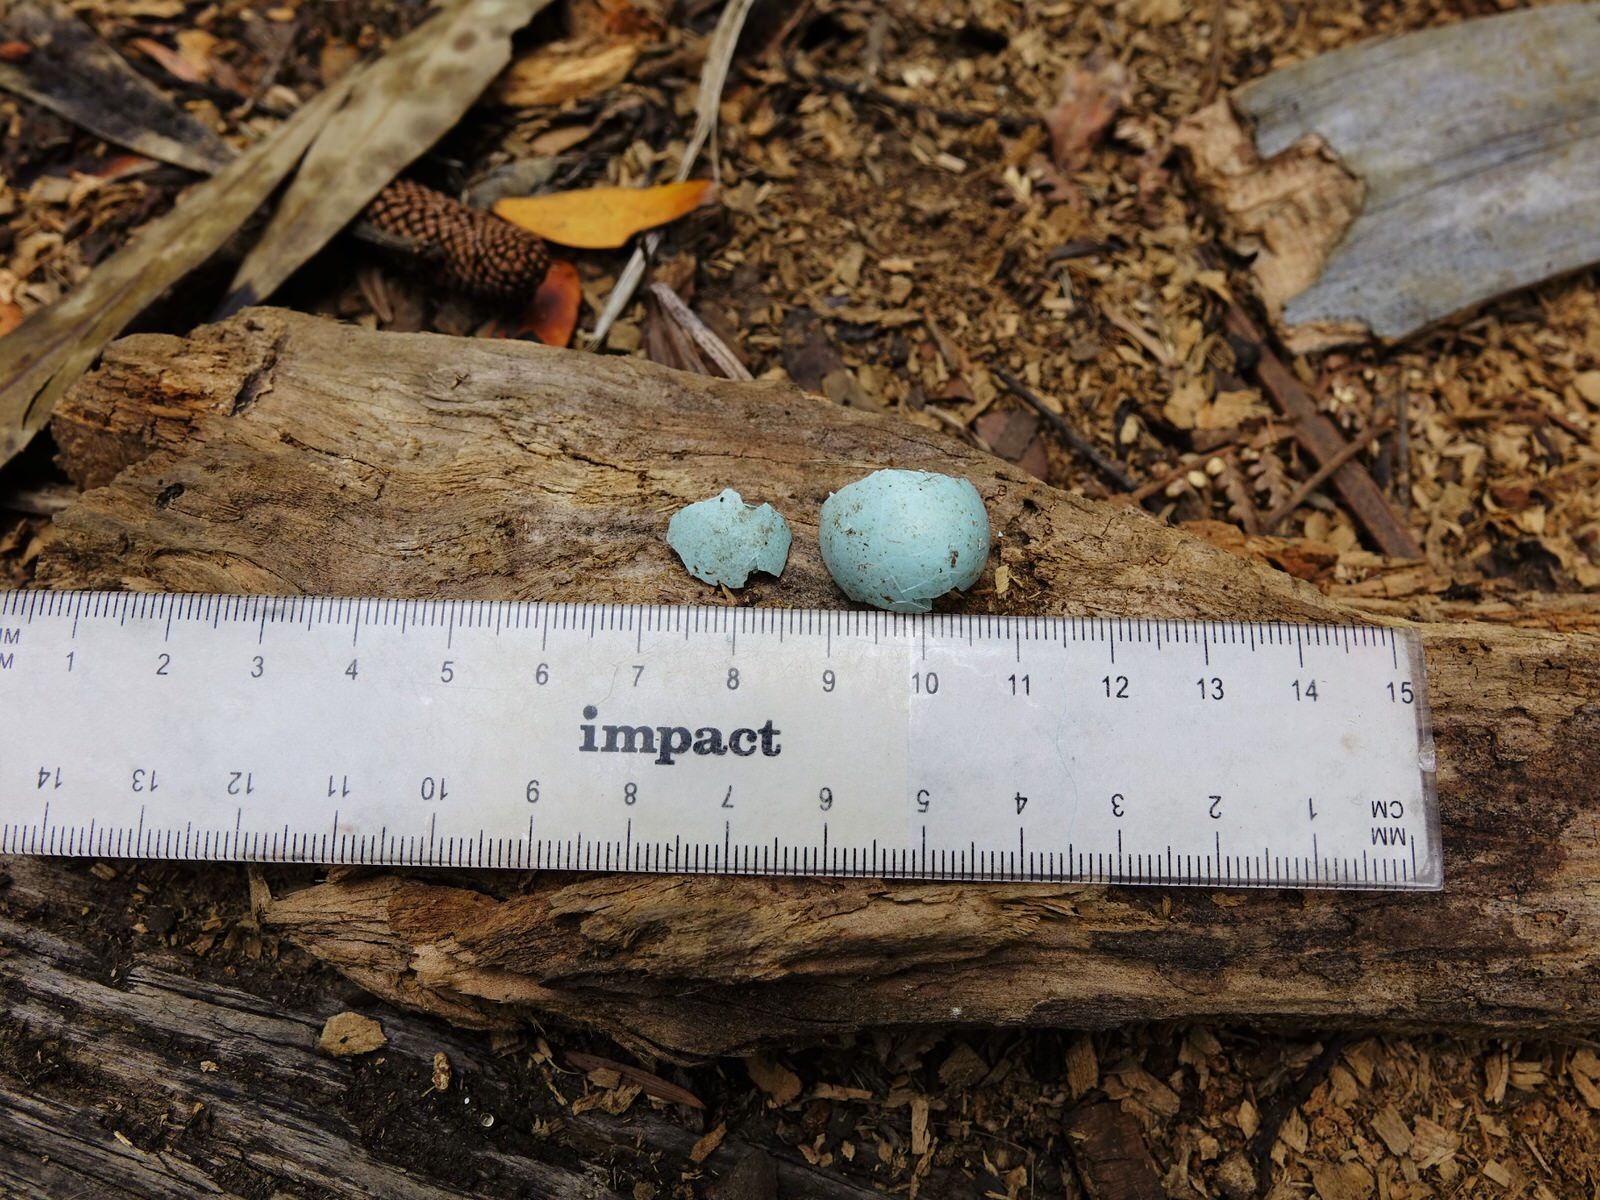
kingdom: Animalia
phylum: Chordata
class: Aves
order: Passeriformes
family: Sturnidae
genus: Sturnus
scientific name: Sturnus vulgaris
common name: Common starling
